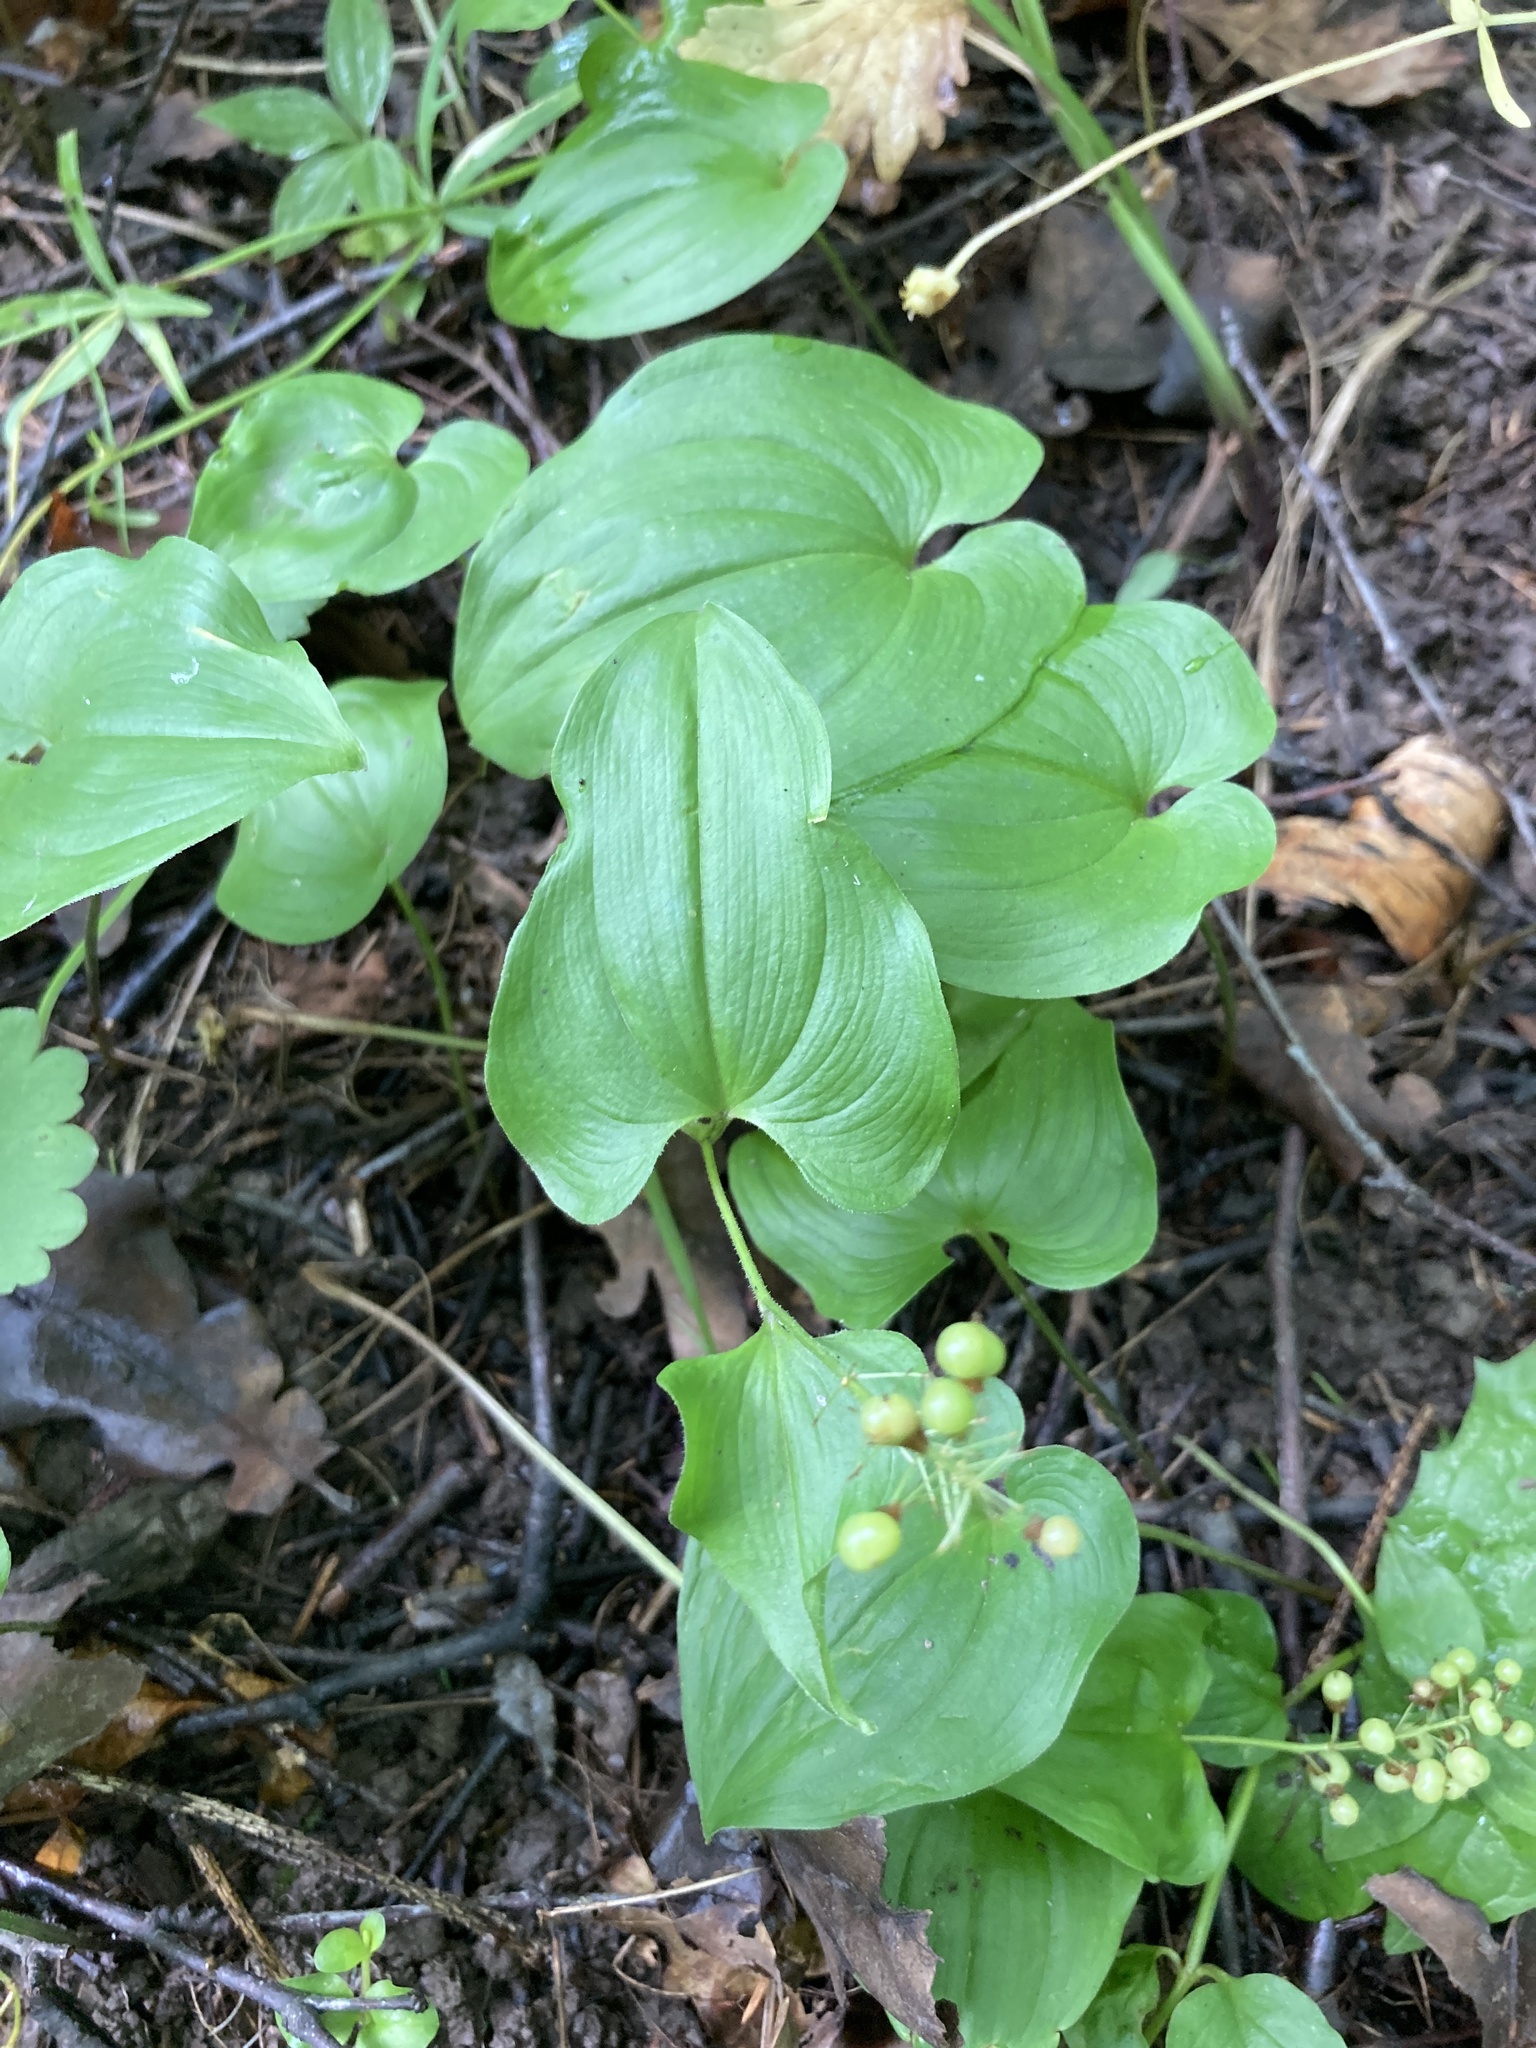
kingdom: Plantae
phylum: Tracheophyta
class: Liliopsida
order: Asparagales
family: Asparagaceae
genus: Maianthemum
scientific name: Maianthemum bifolium
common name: May lily
